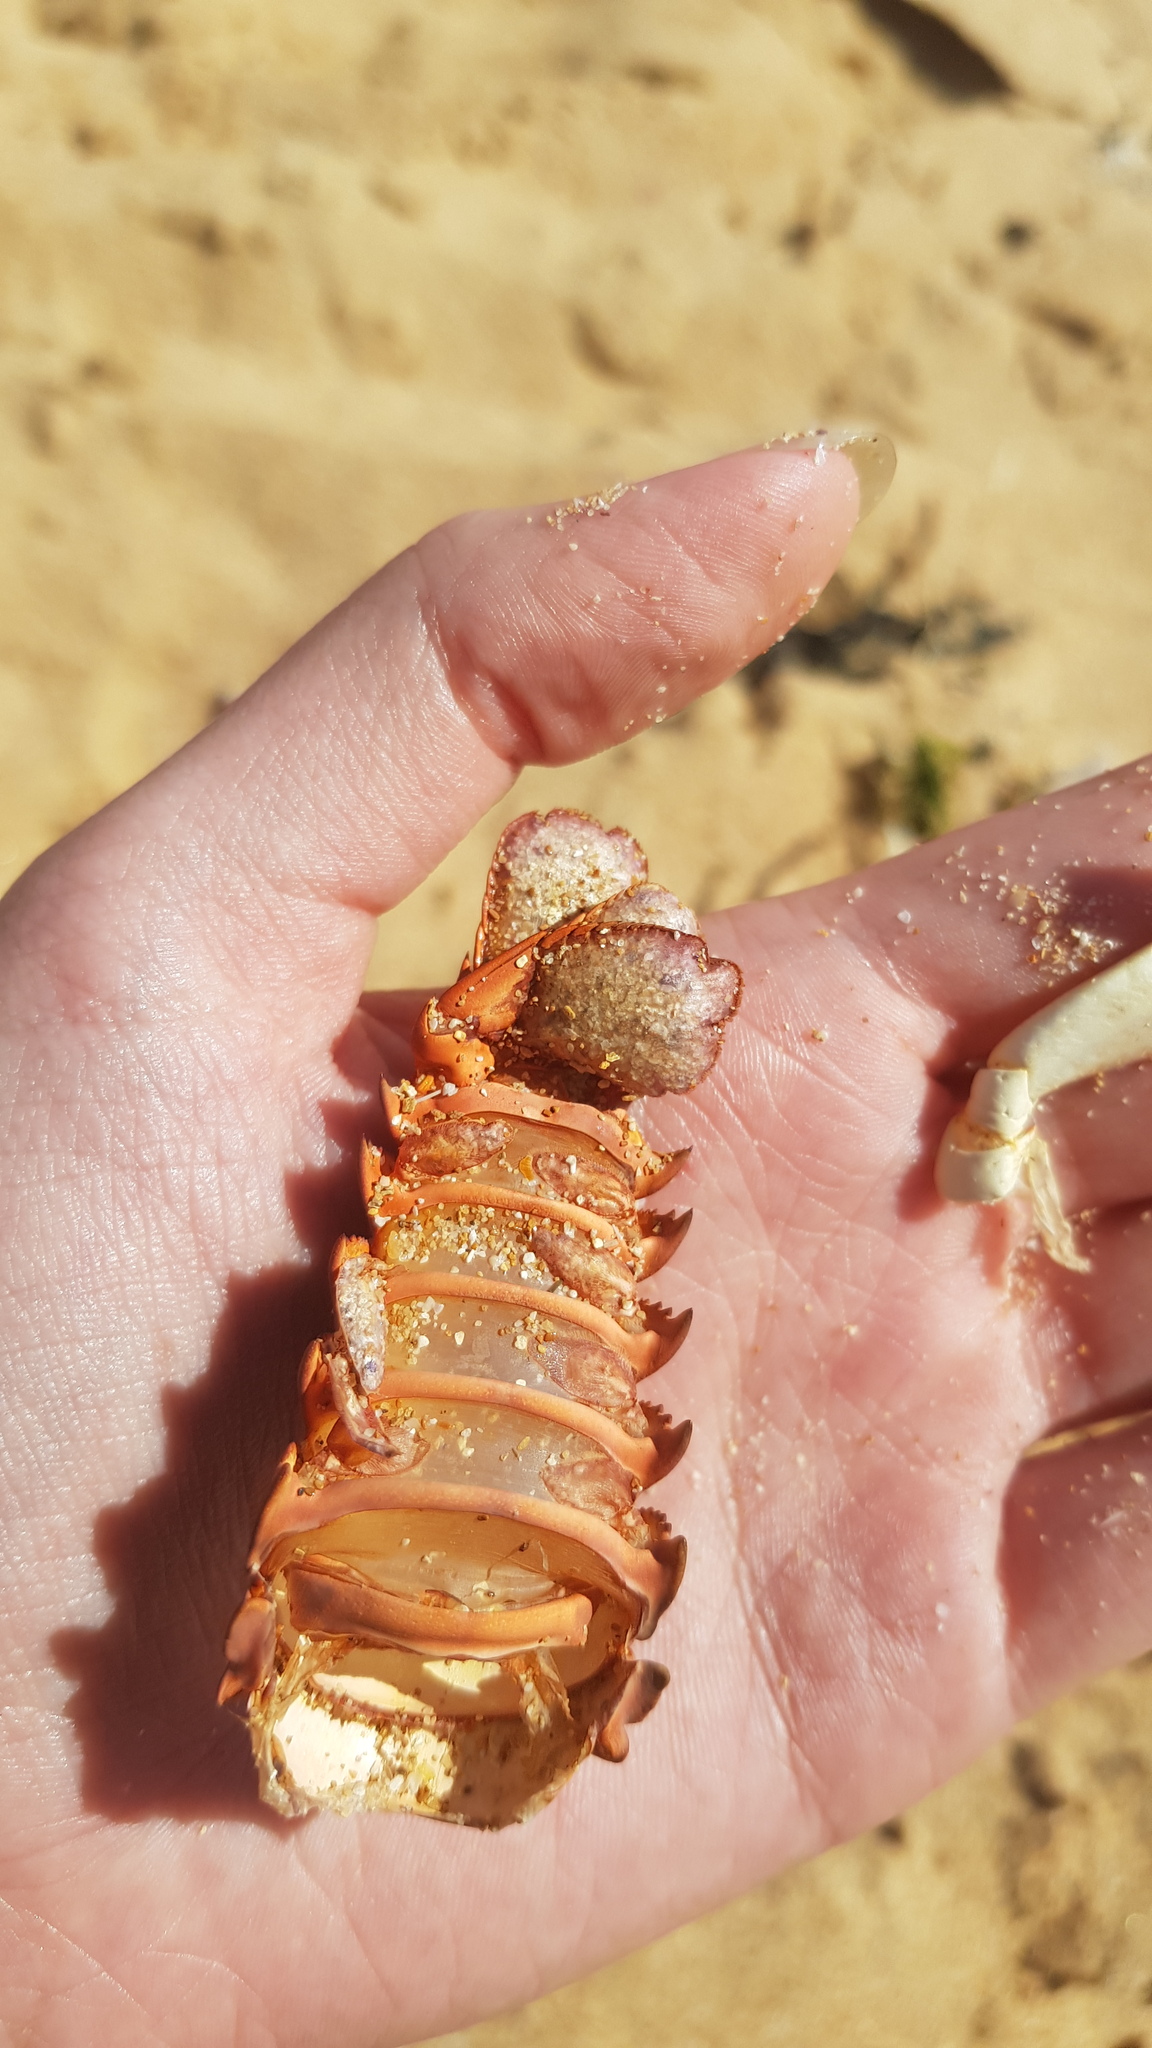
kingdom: Animalia
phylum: Arthropoda
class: Malacostraca
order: Decapoda
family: Palinuridae
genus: Sagmariasus
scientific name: Sagmariasus verreauxi
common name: Green rock lobster
